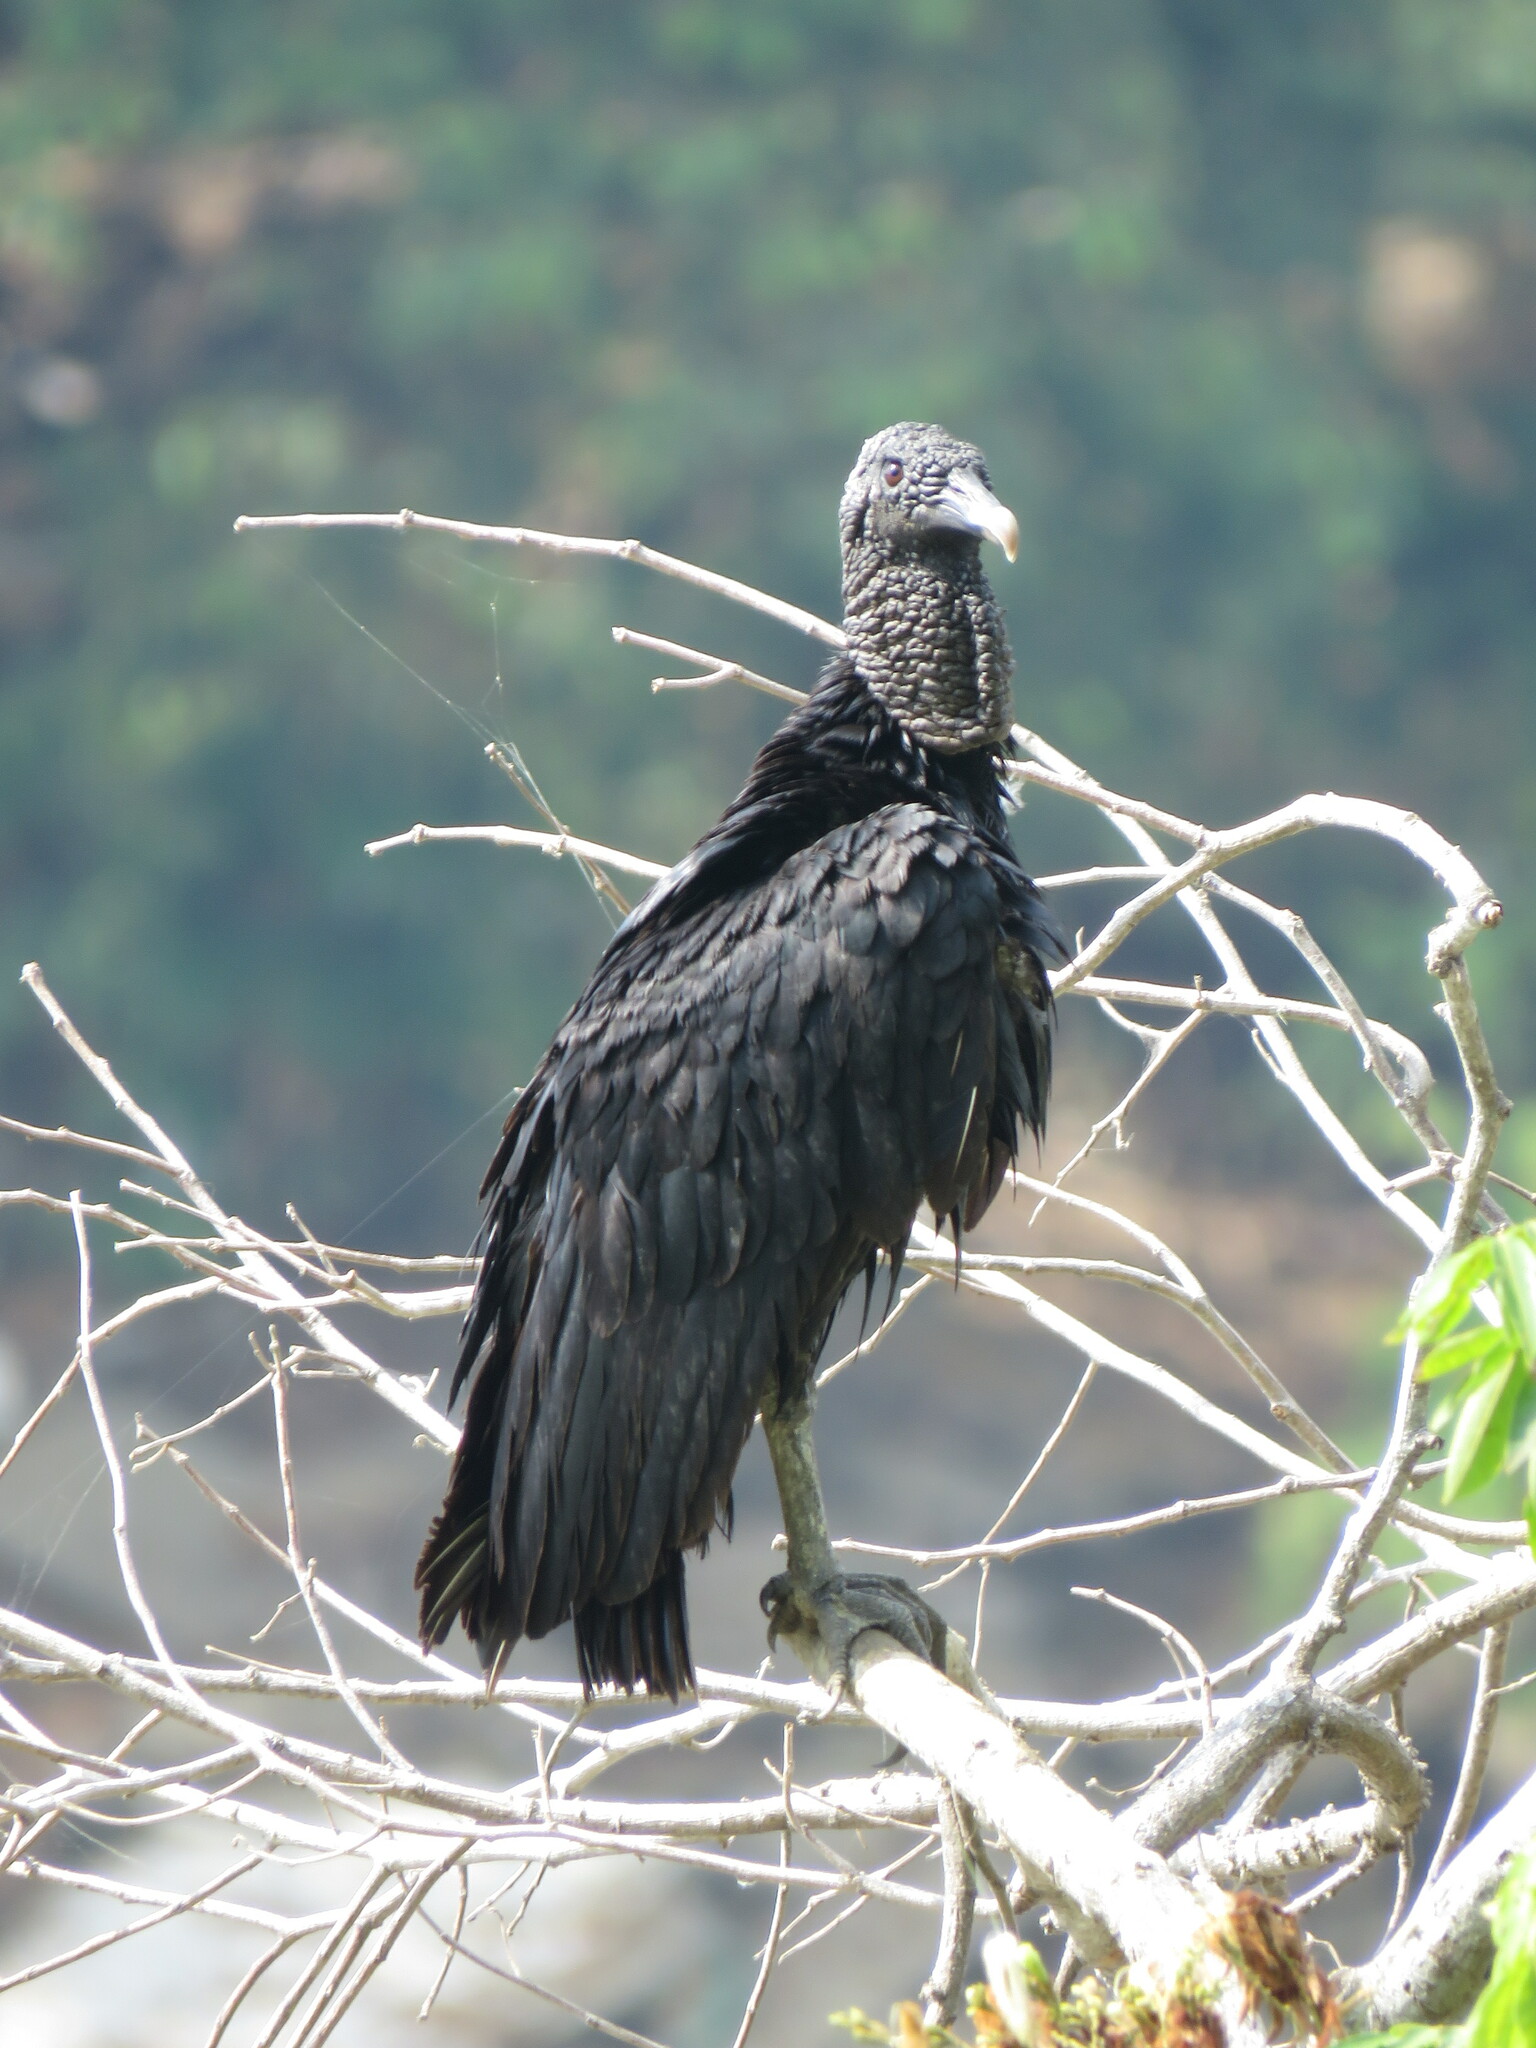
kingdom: Animalia
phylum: Chordata
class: Aves
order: Accipitriformes
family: Cathartidae
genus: Coragyps
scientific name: Coragyps atratus
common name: Black vulture
